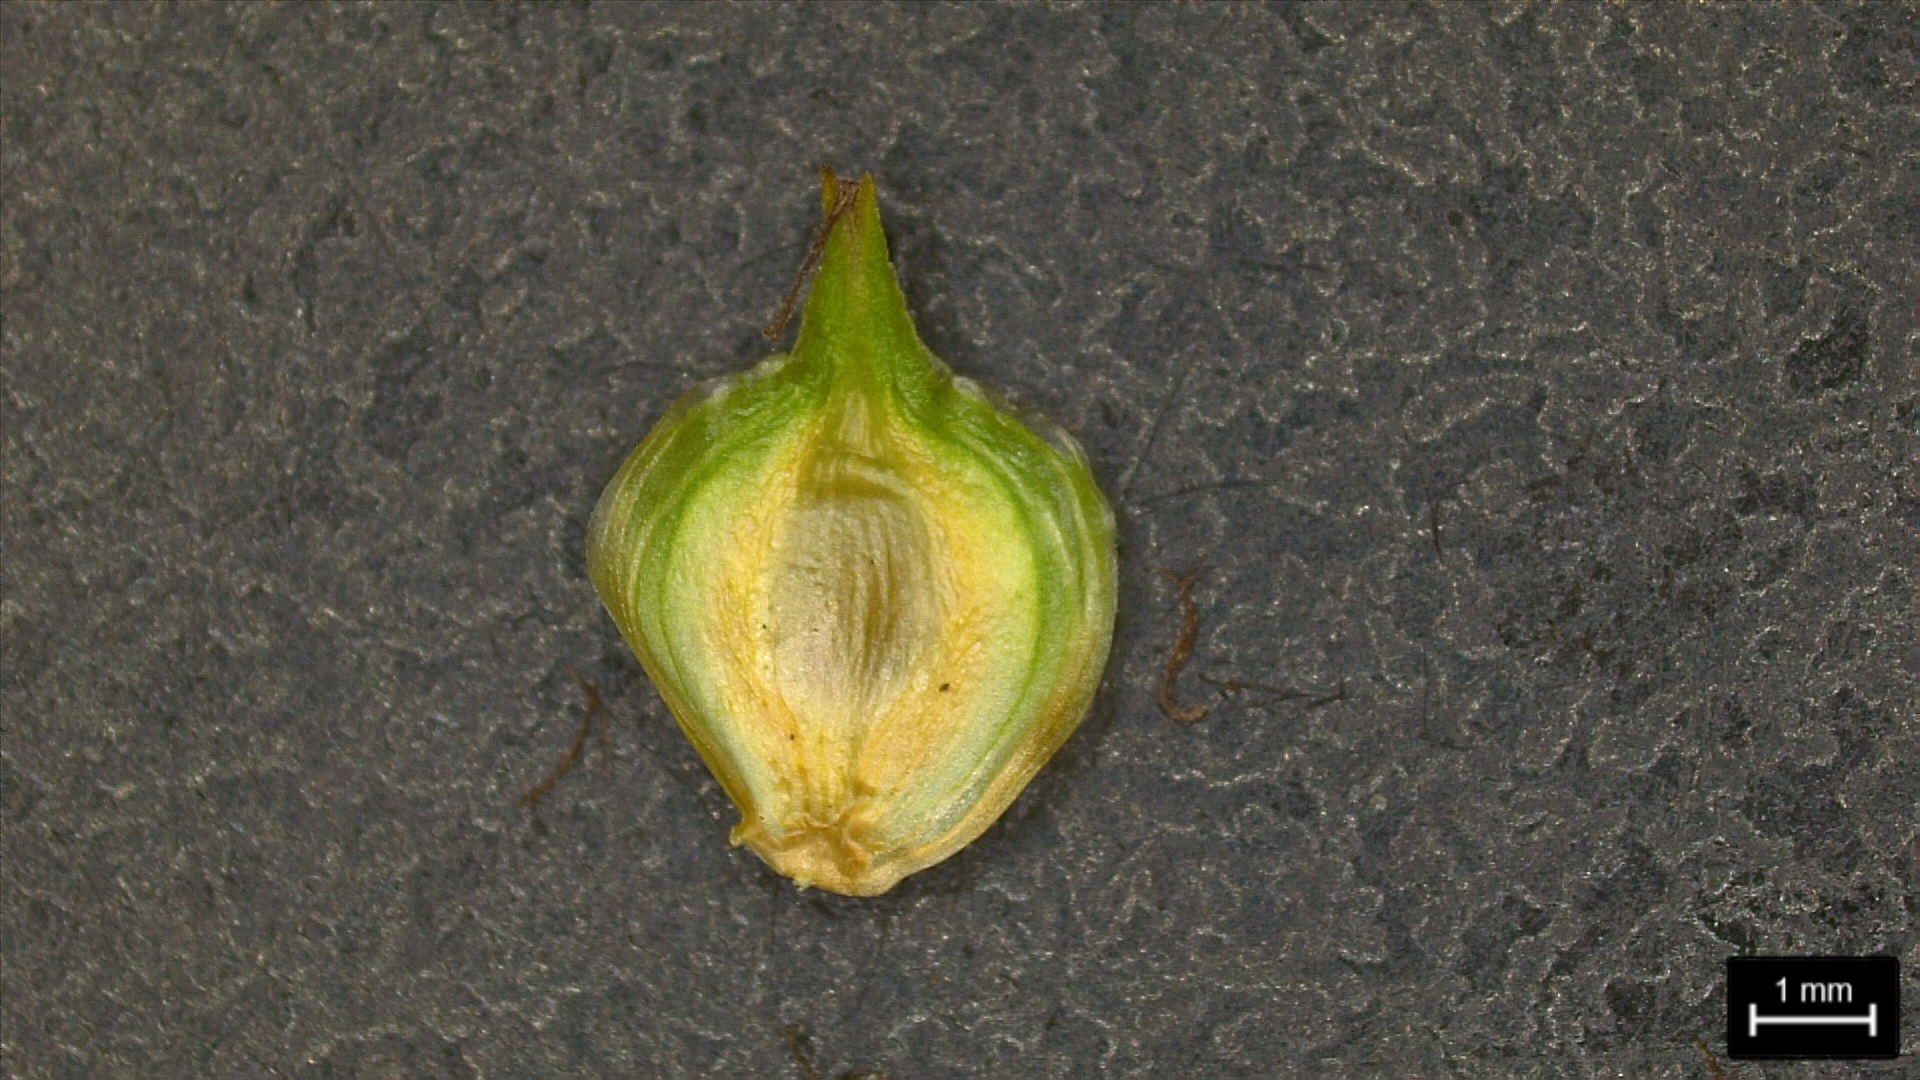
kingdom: Plantae
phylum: Tracheophyta
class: Liliopsida
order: Poales
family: Cyperaceae
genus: Carex
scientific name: Carex tetrastachya
